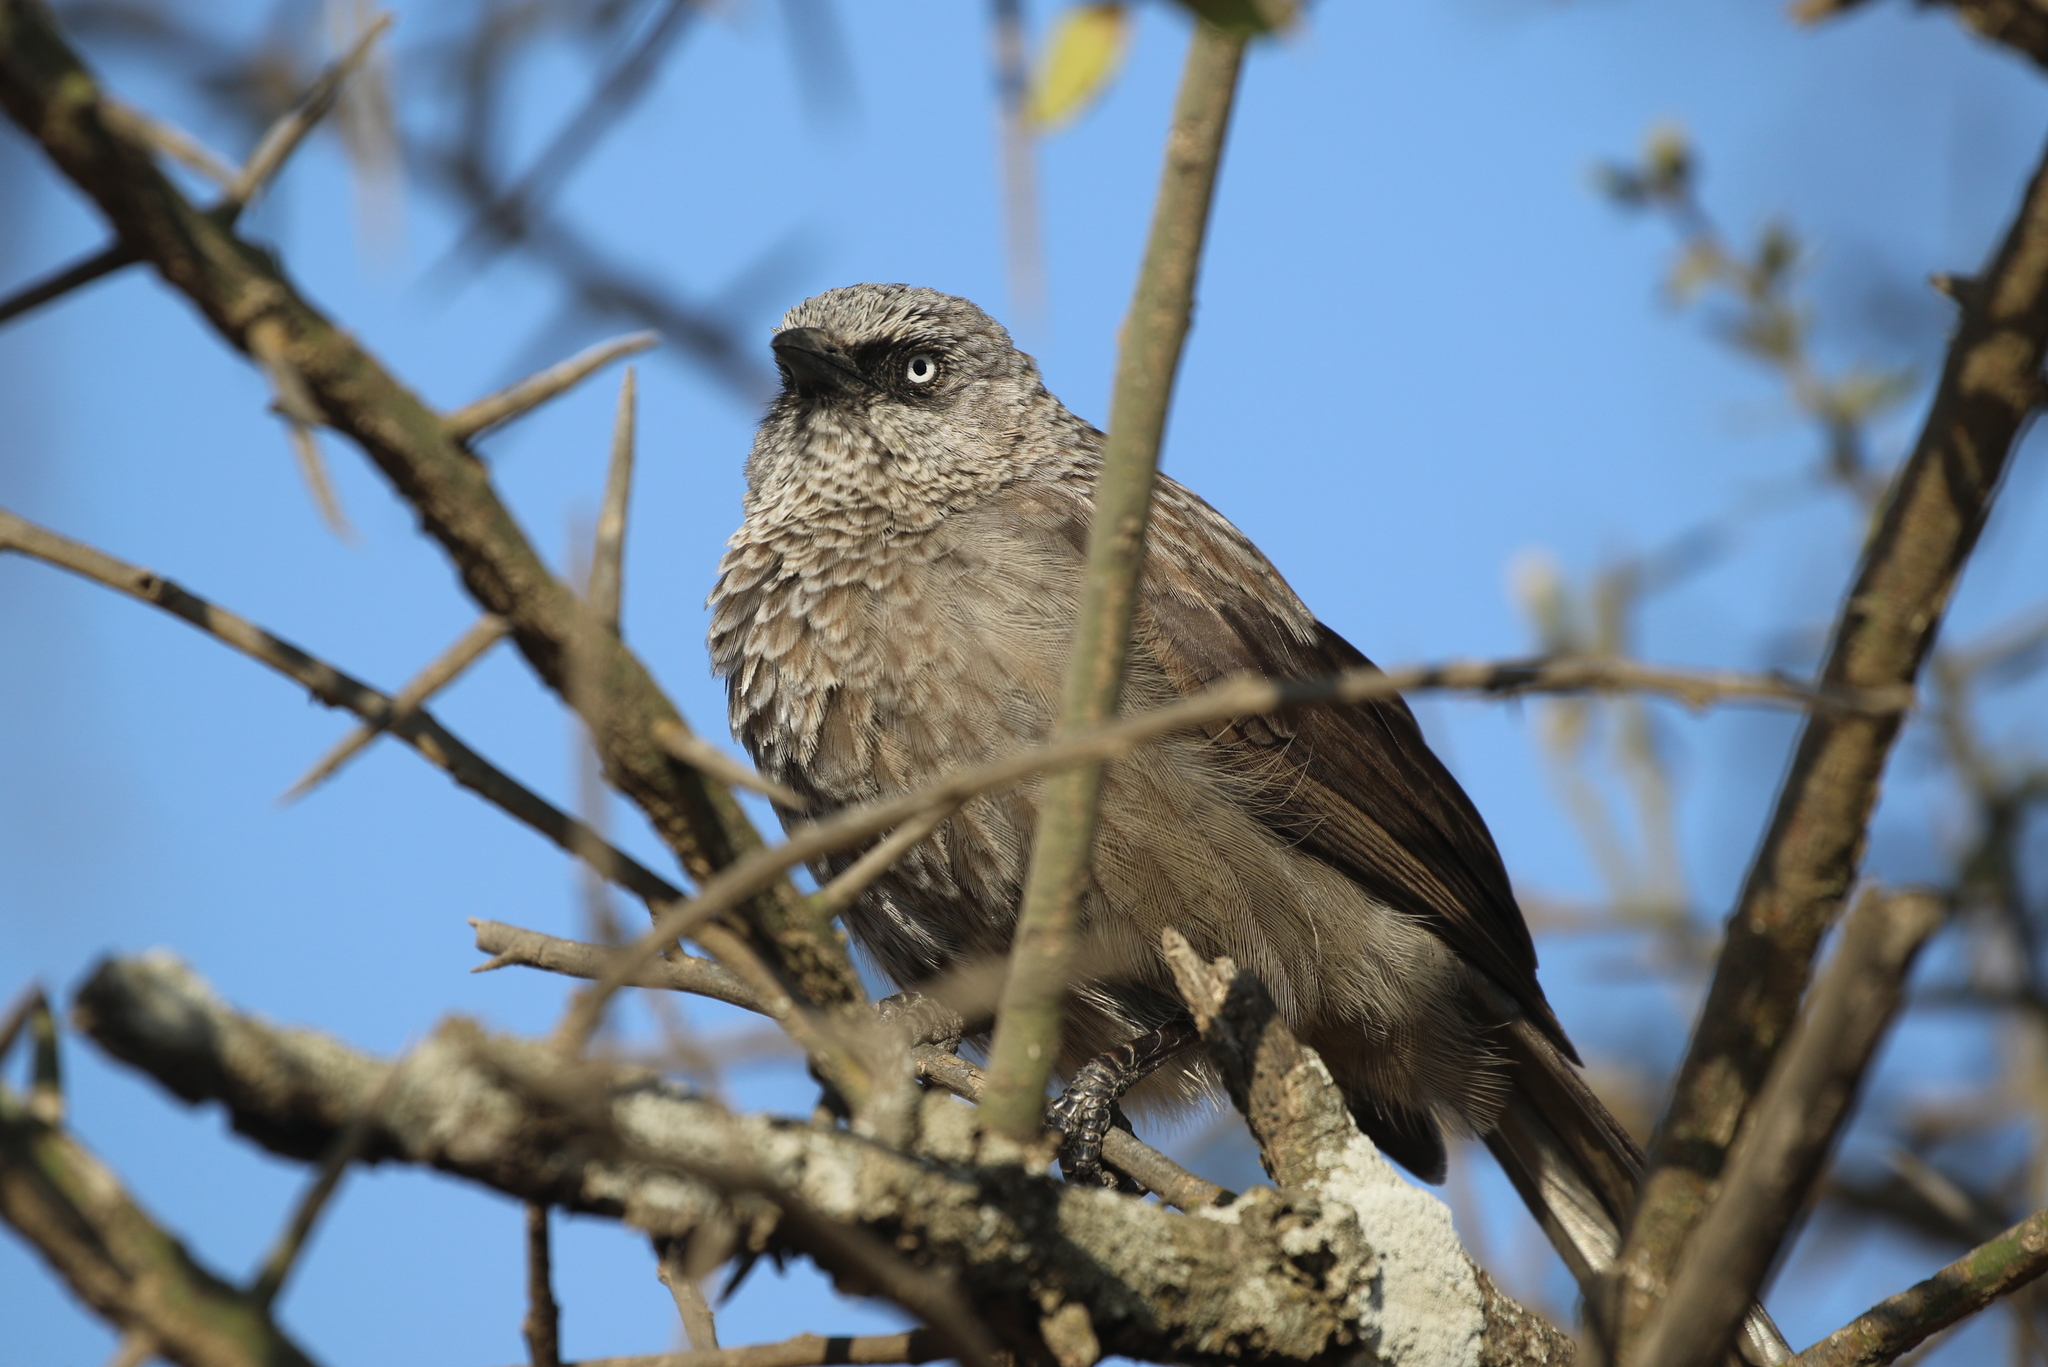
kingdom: Animalia
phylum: Chordata
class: Aves
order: Passeriformes
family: Leiothrichidae
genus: Turdoides
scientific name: Turdoides sharpei
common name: Black-lored babbler
